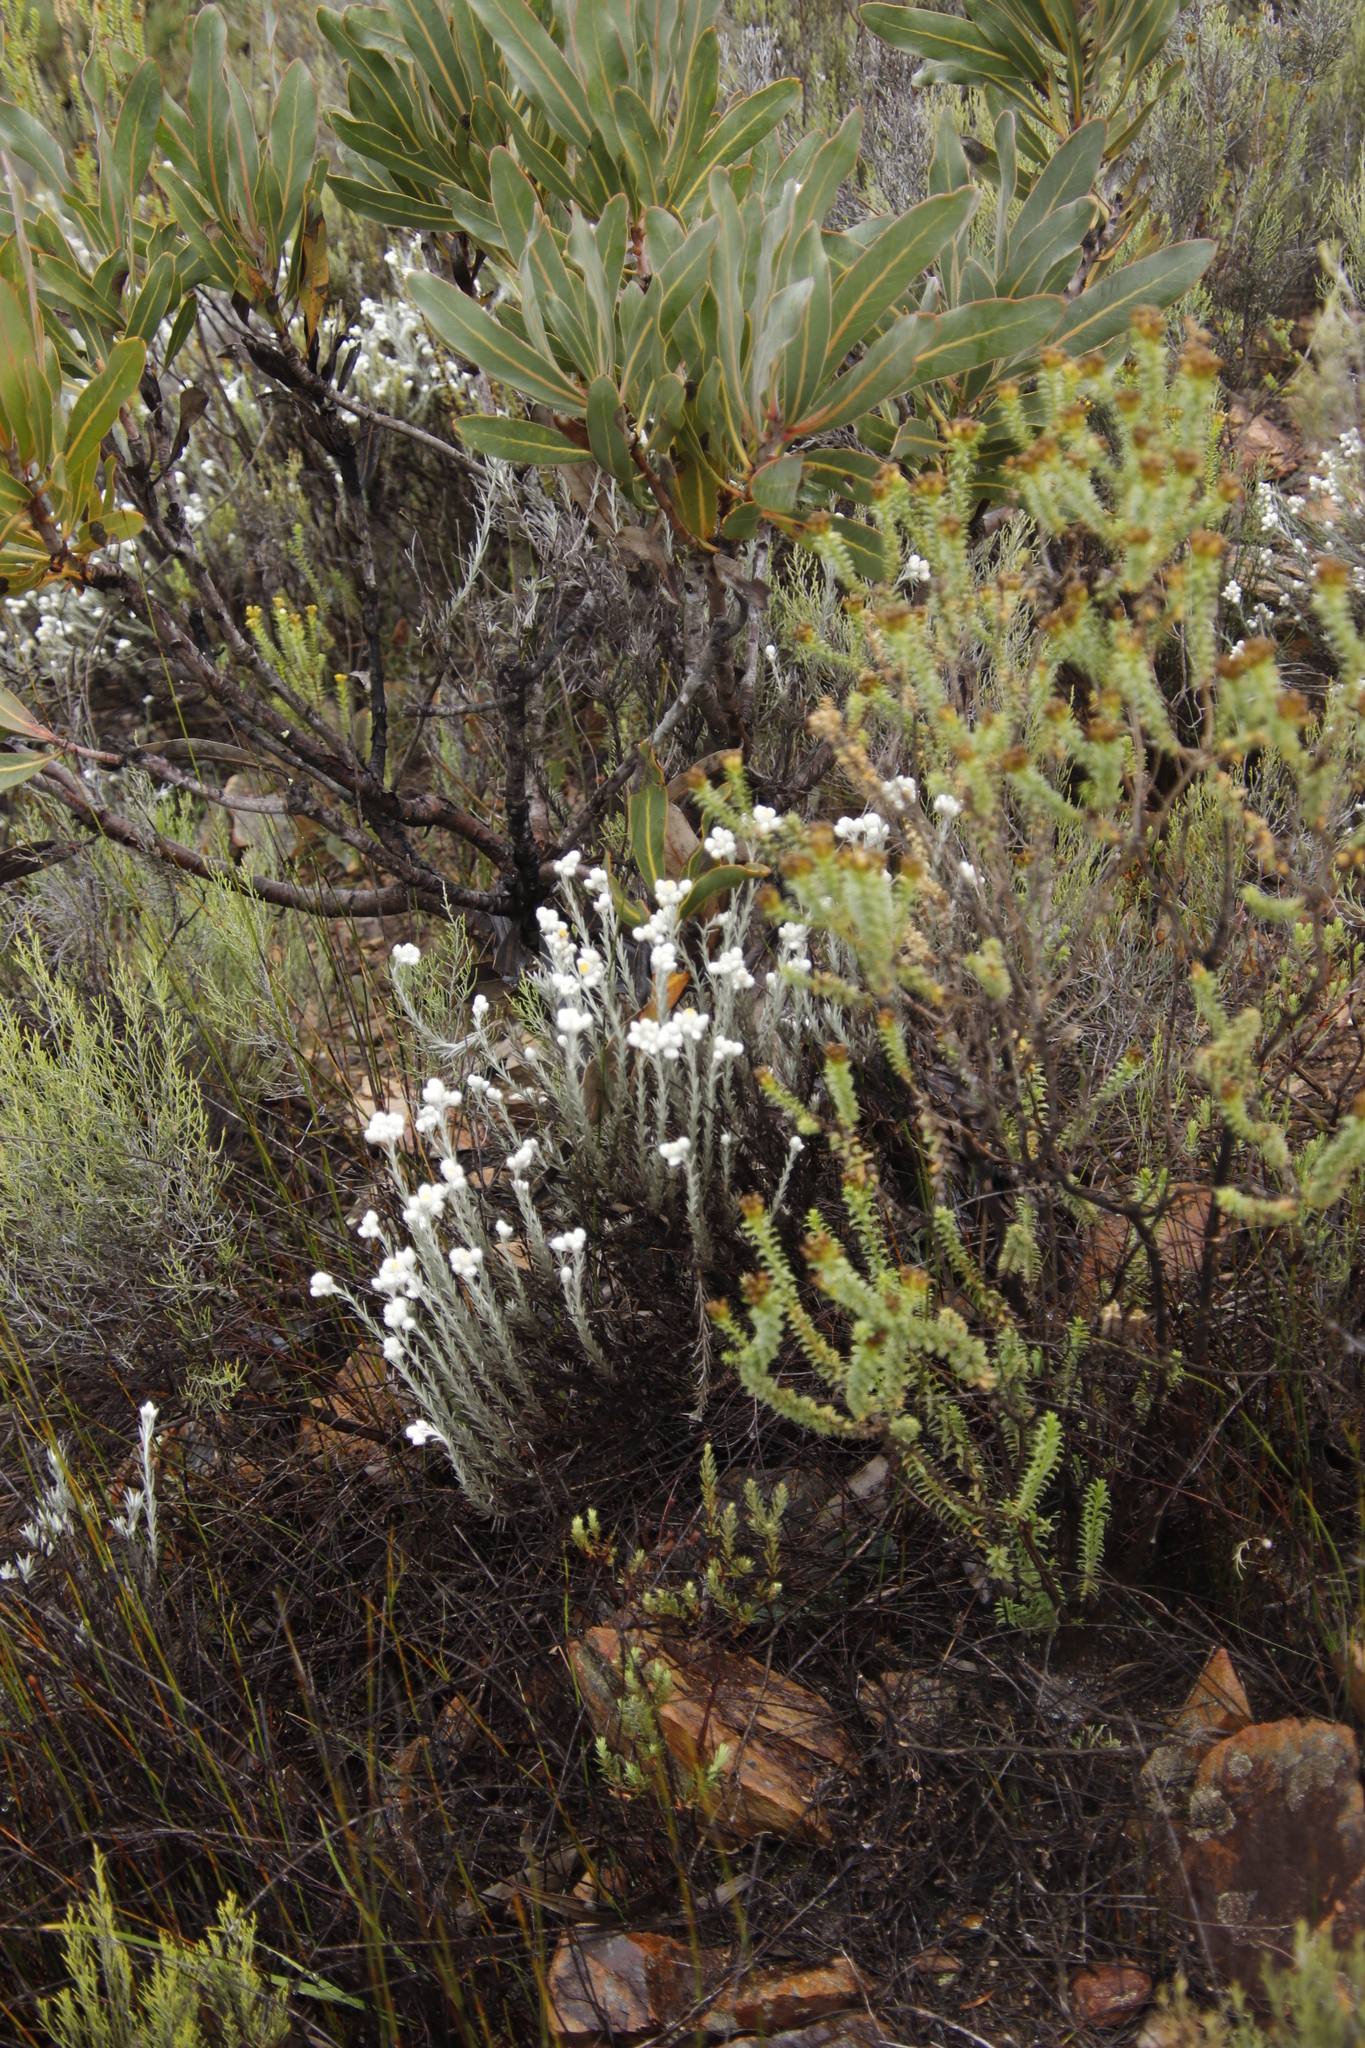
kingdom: Plantae
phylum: Tracheophyta
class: Magnoliopsida
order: Proteales
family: Proteaceae
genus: Protea
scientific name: Protea lorifolia
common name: Strap-leaved protea
